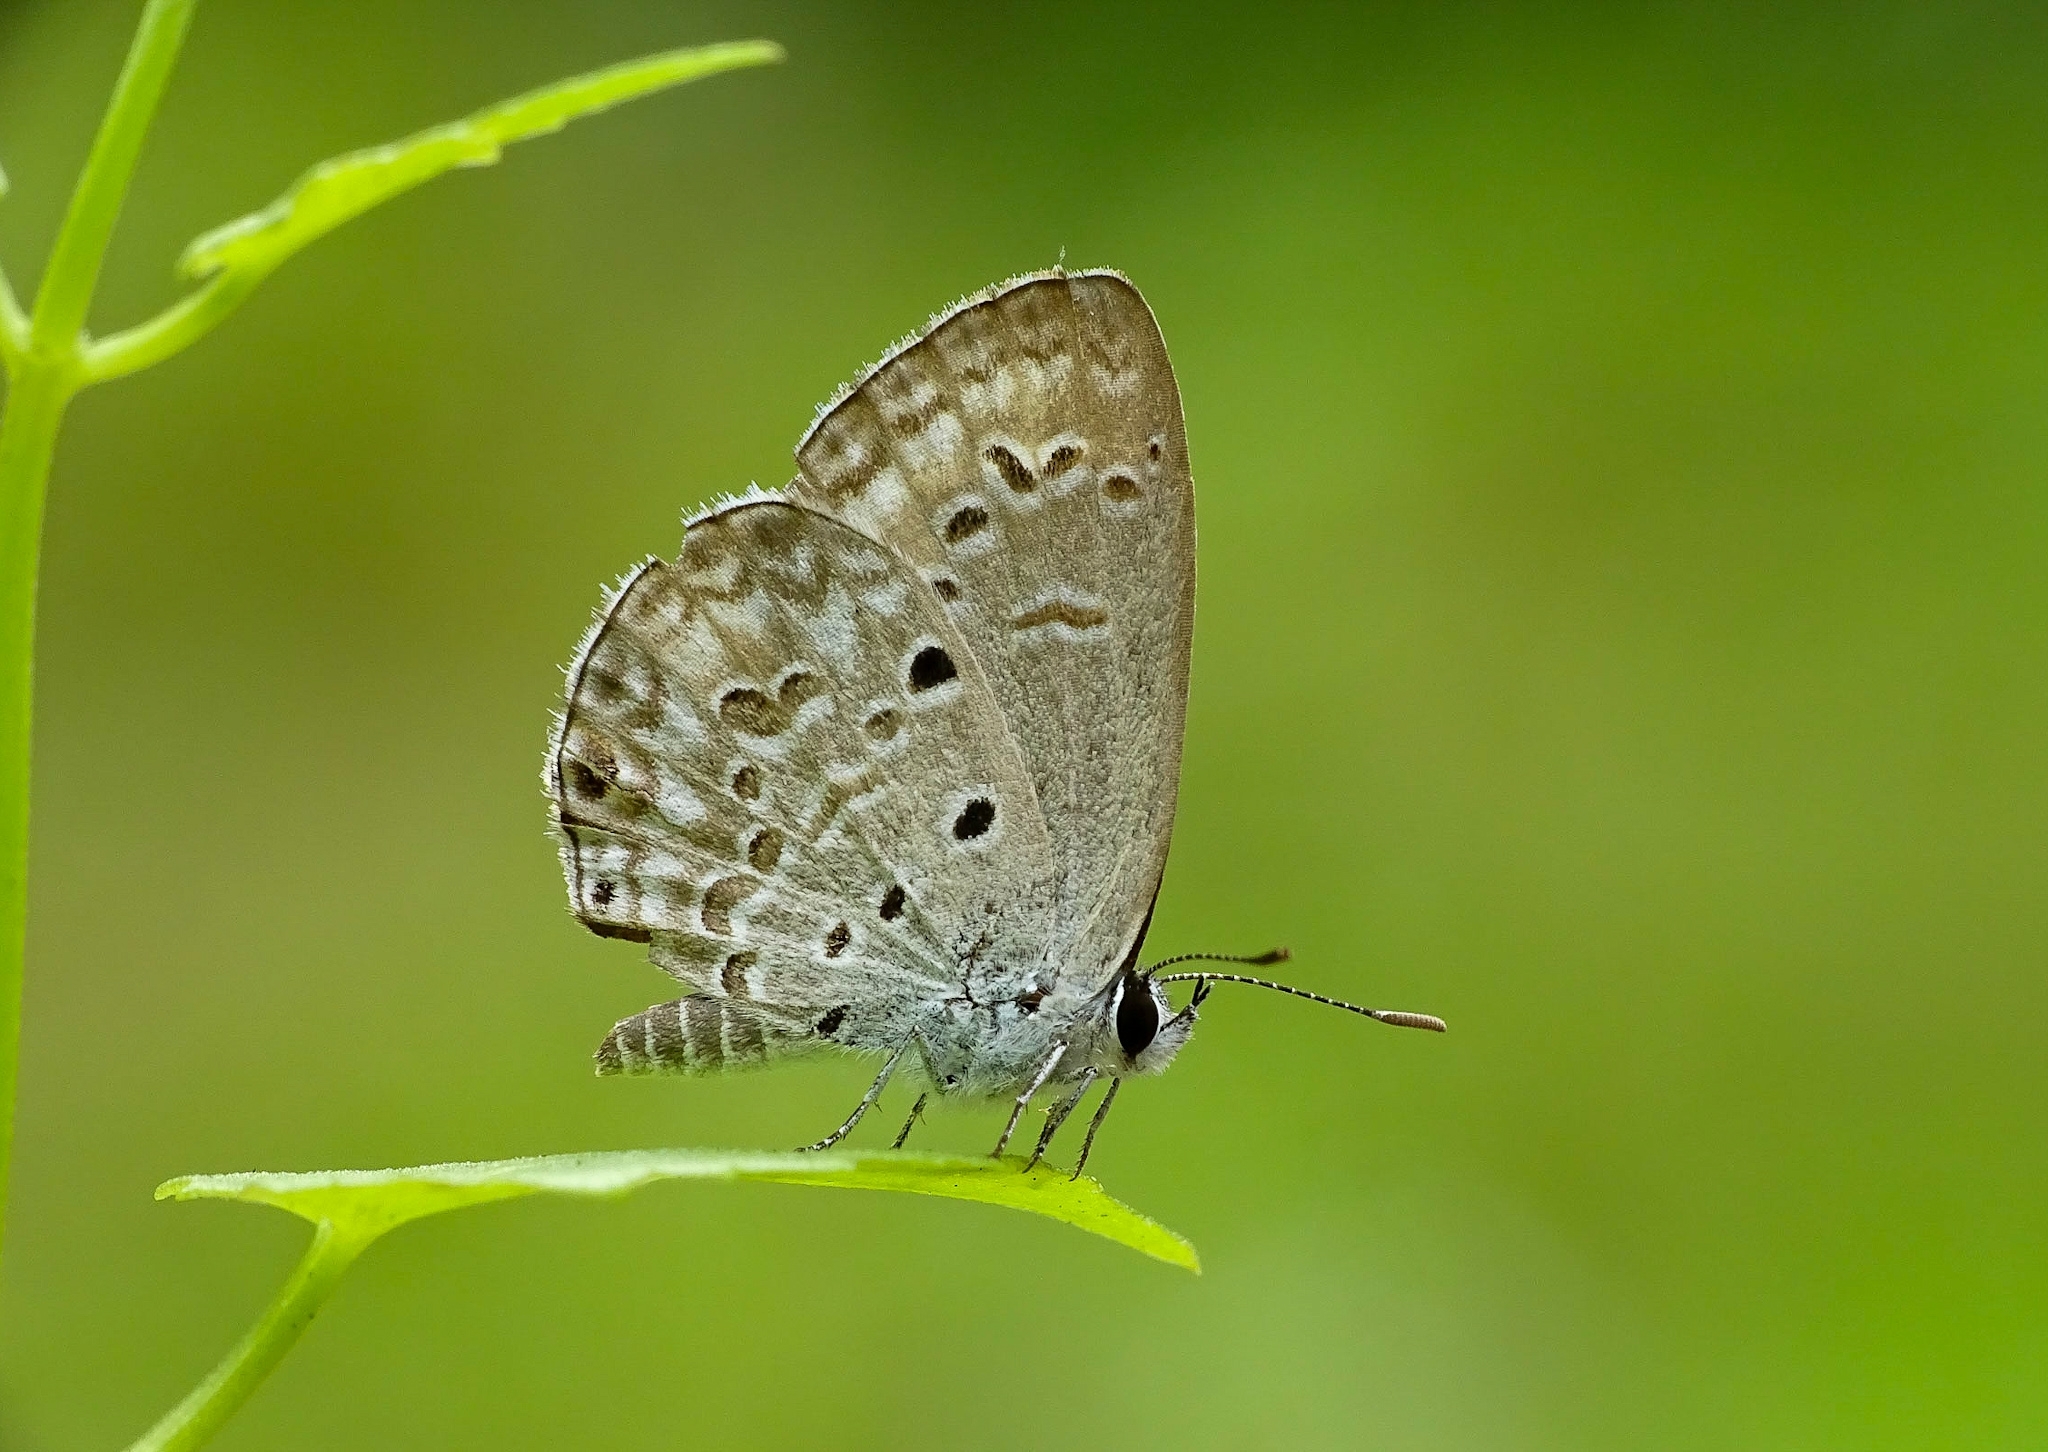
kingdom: Animalia
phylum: Arthropoda
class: Insecta
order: Lepidoptera
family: Lycaenidae
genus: Chilades
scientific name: Chilades laius
